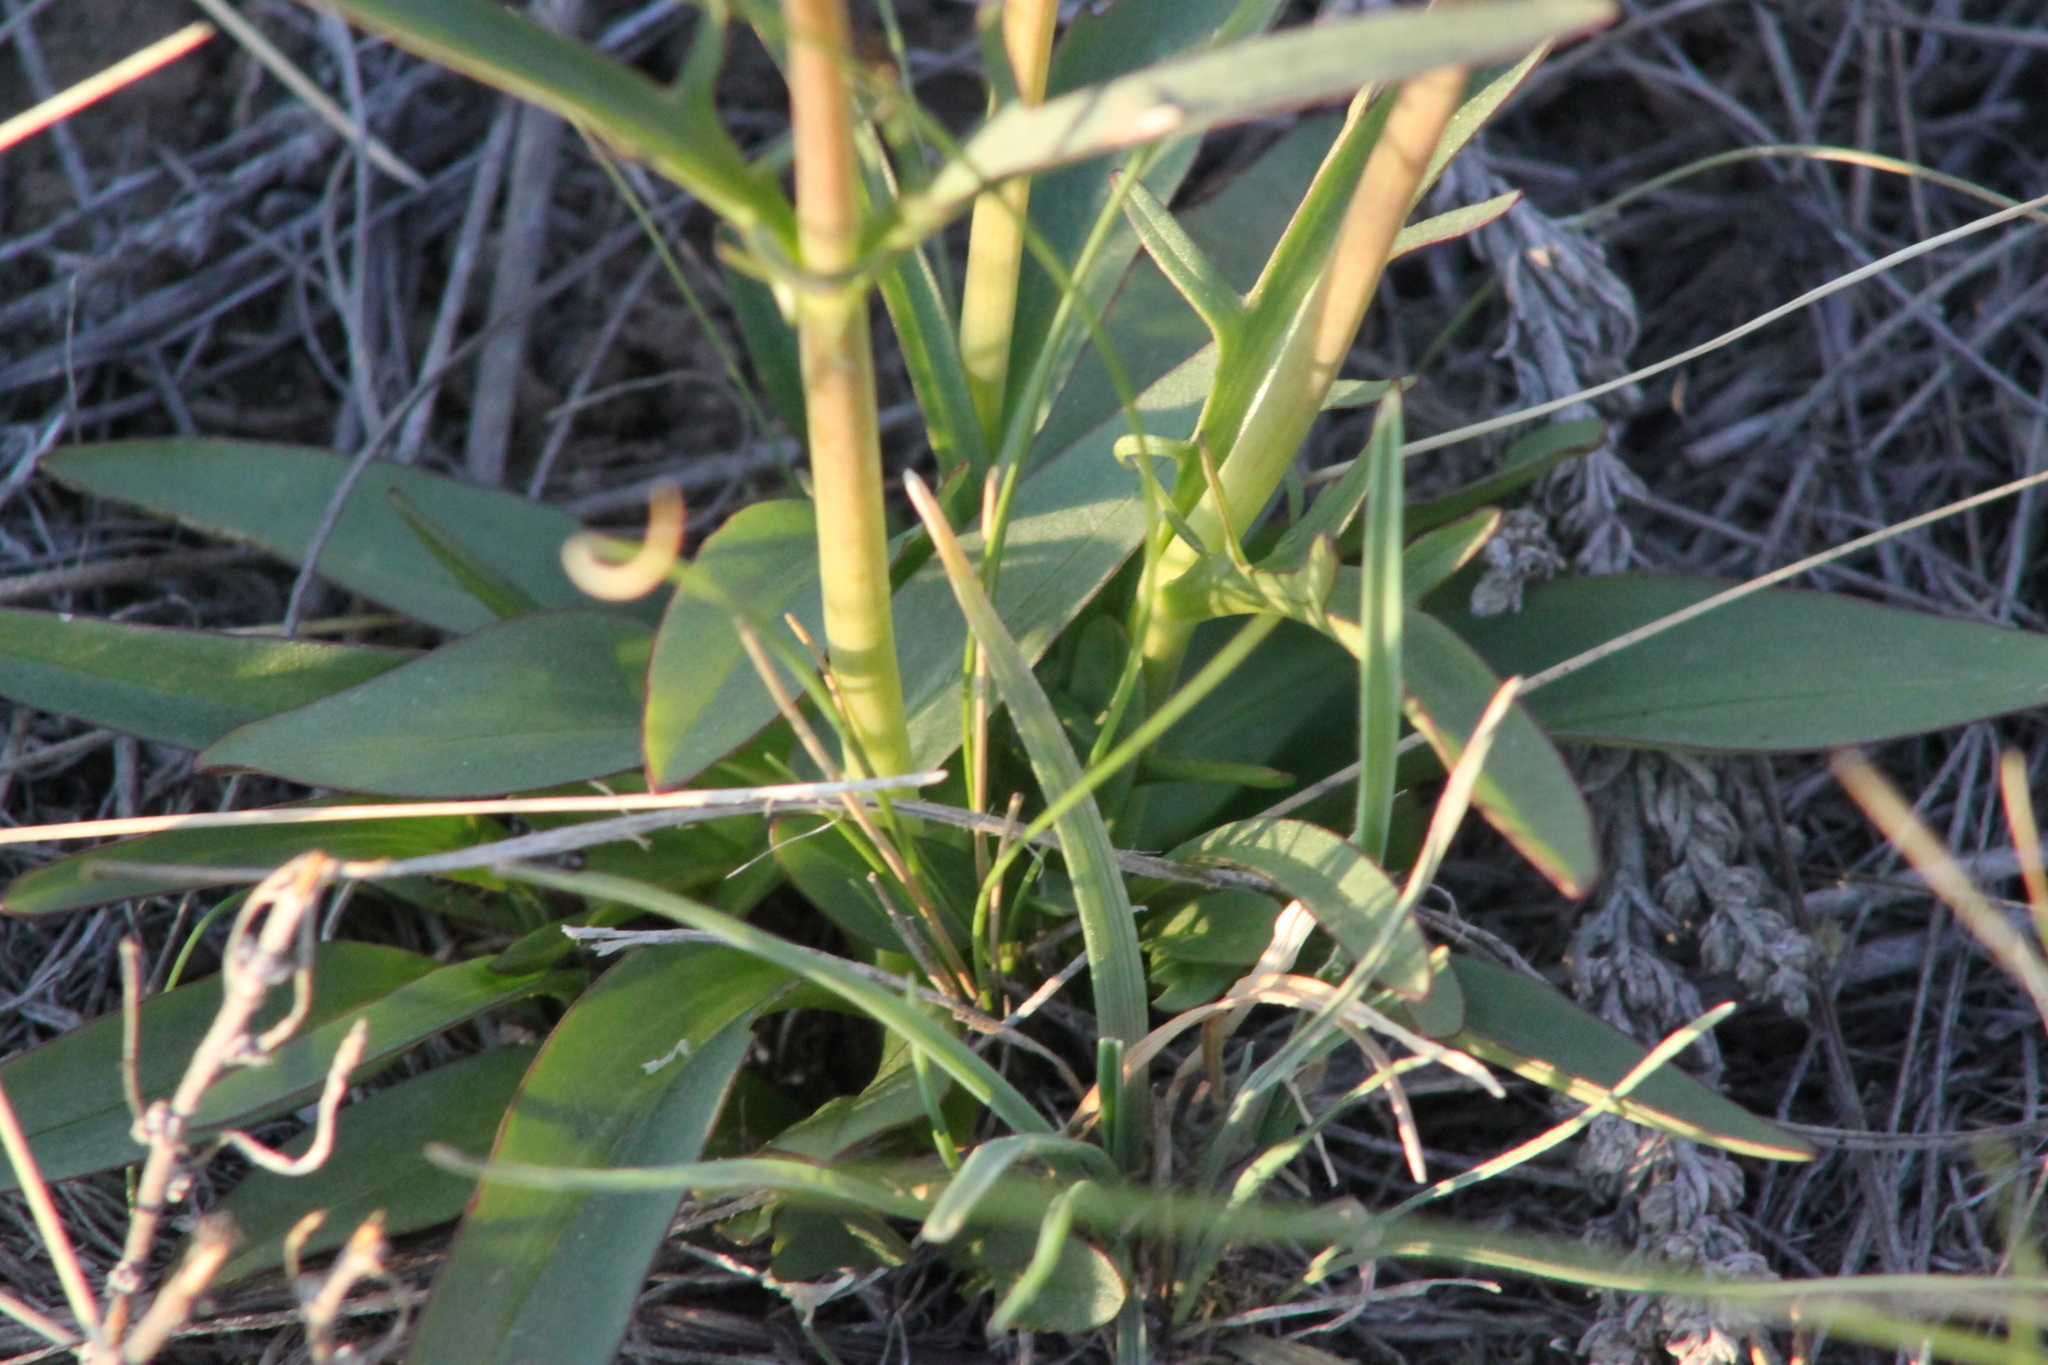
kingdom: Plantae
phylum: Tracheophyta
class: Magnoliopsida
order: Dipsacales
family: Caprifoliaceae
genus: Valeriana
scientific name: Valeriana tuberosa
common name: Tuberous valerian
